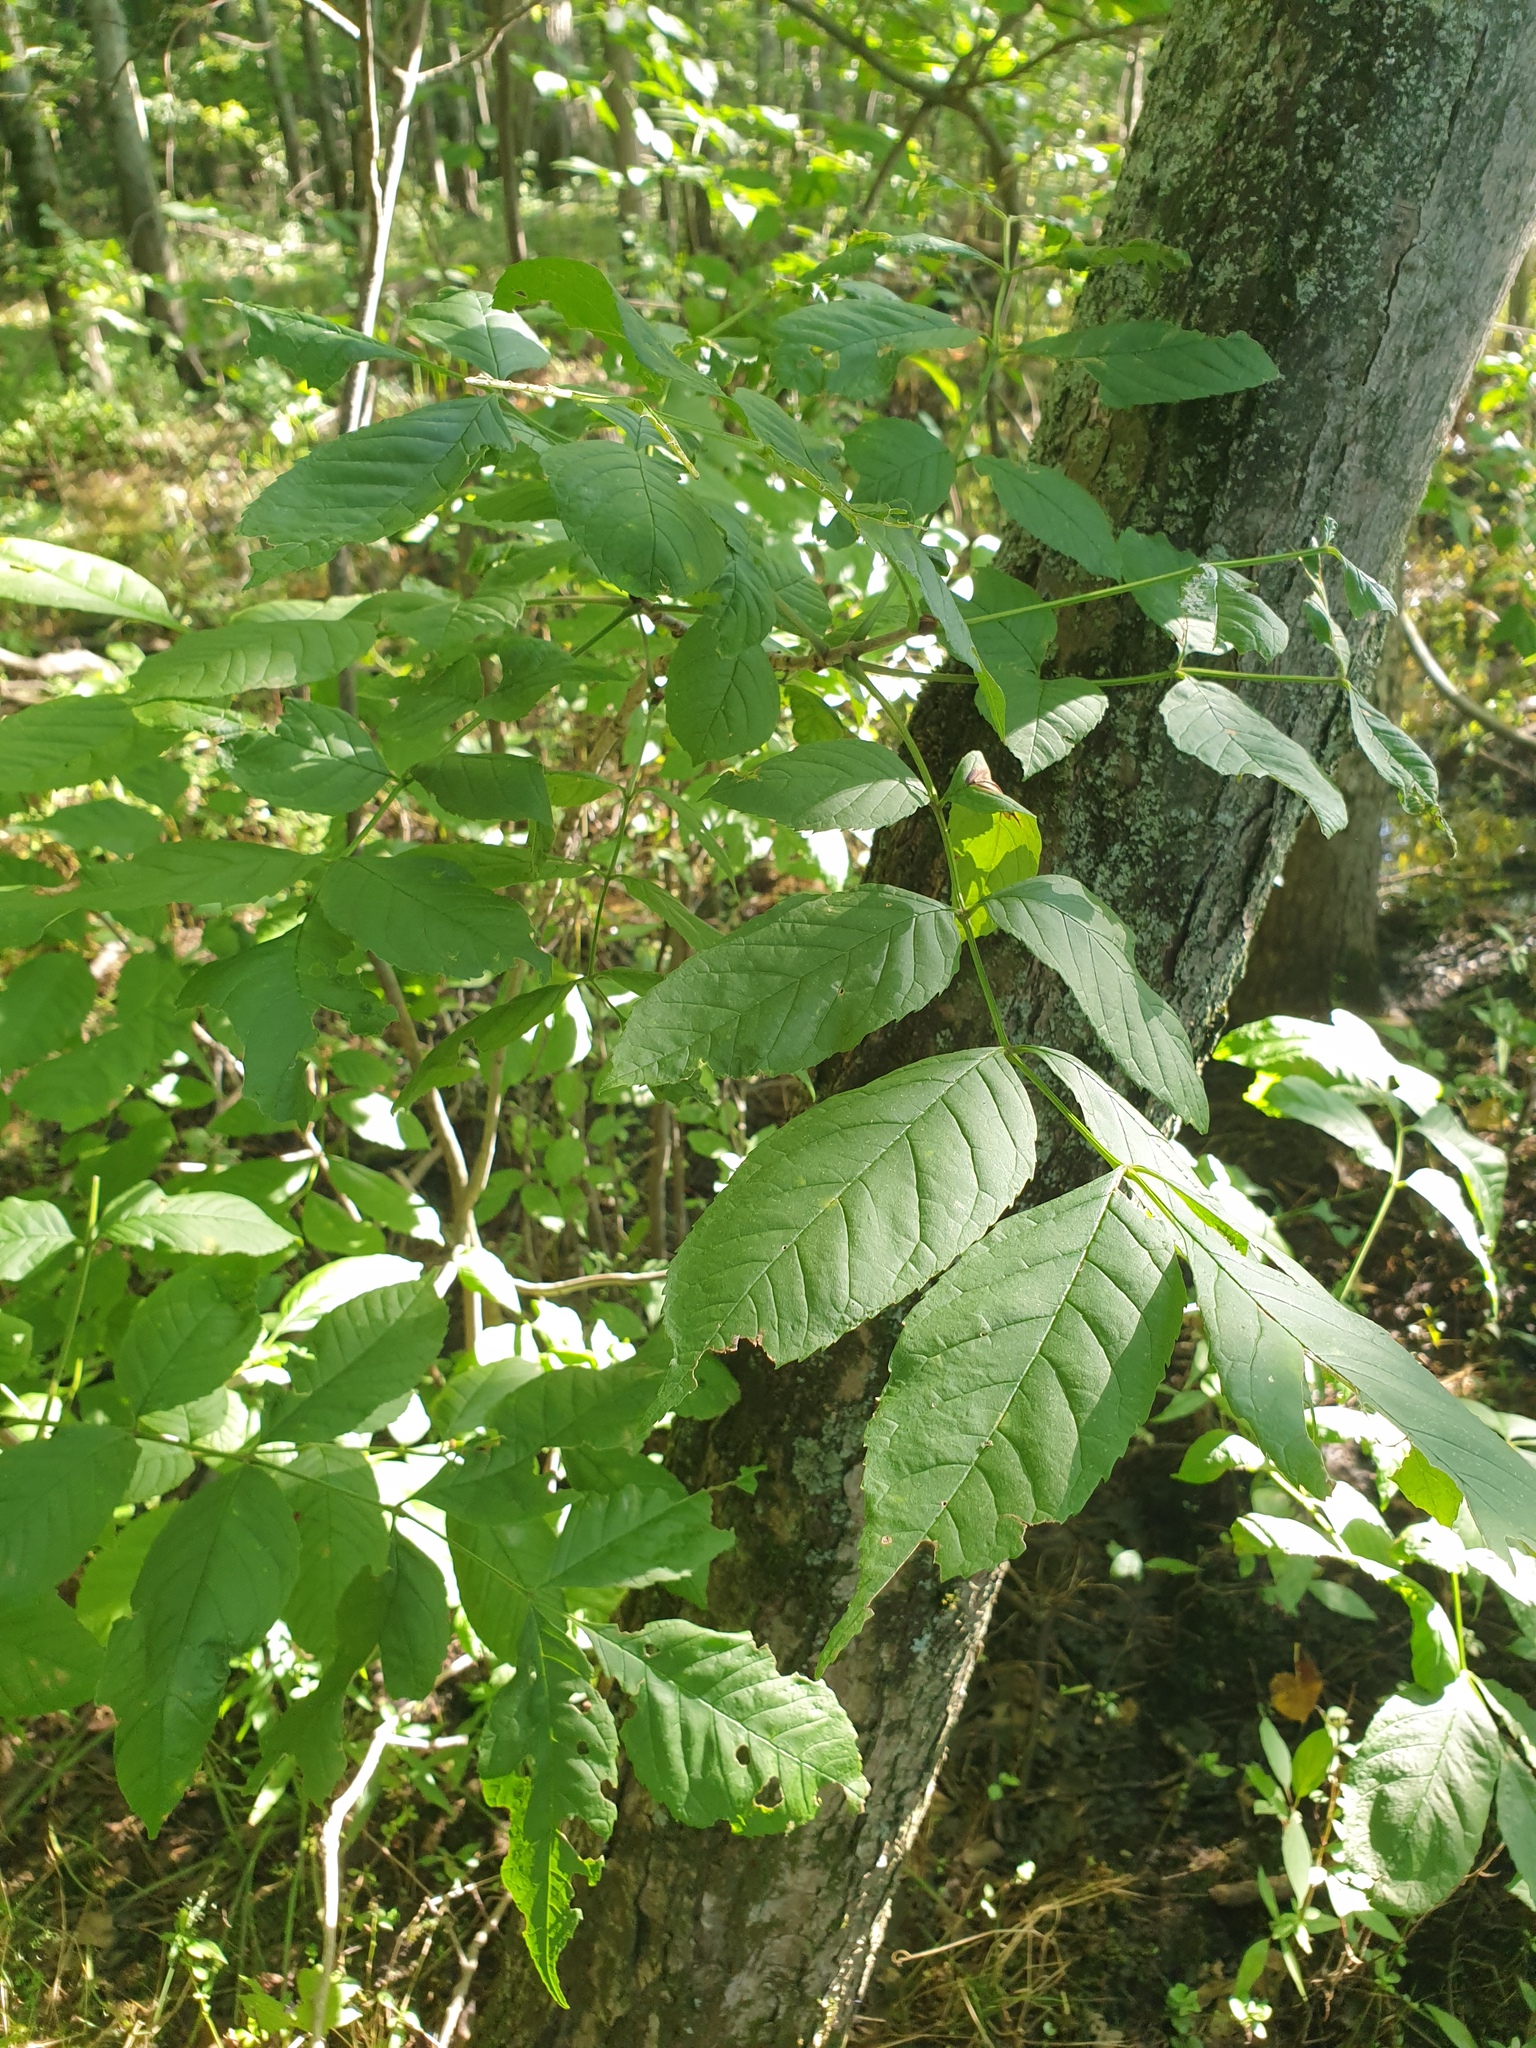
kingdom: Plantae
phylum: Tracheophyta
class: Magnoliopsida
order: Lamiales
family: Oleaceae
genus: Fraxinus
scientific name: Fraxinus pennsylvanica
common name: Green ash
